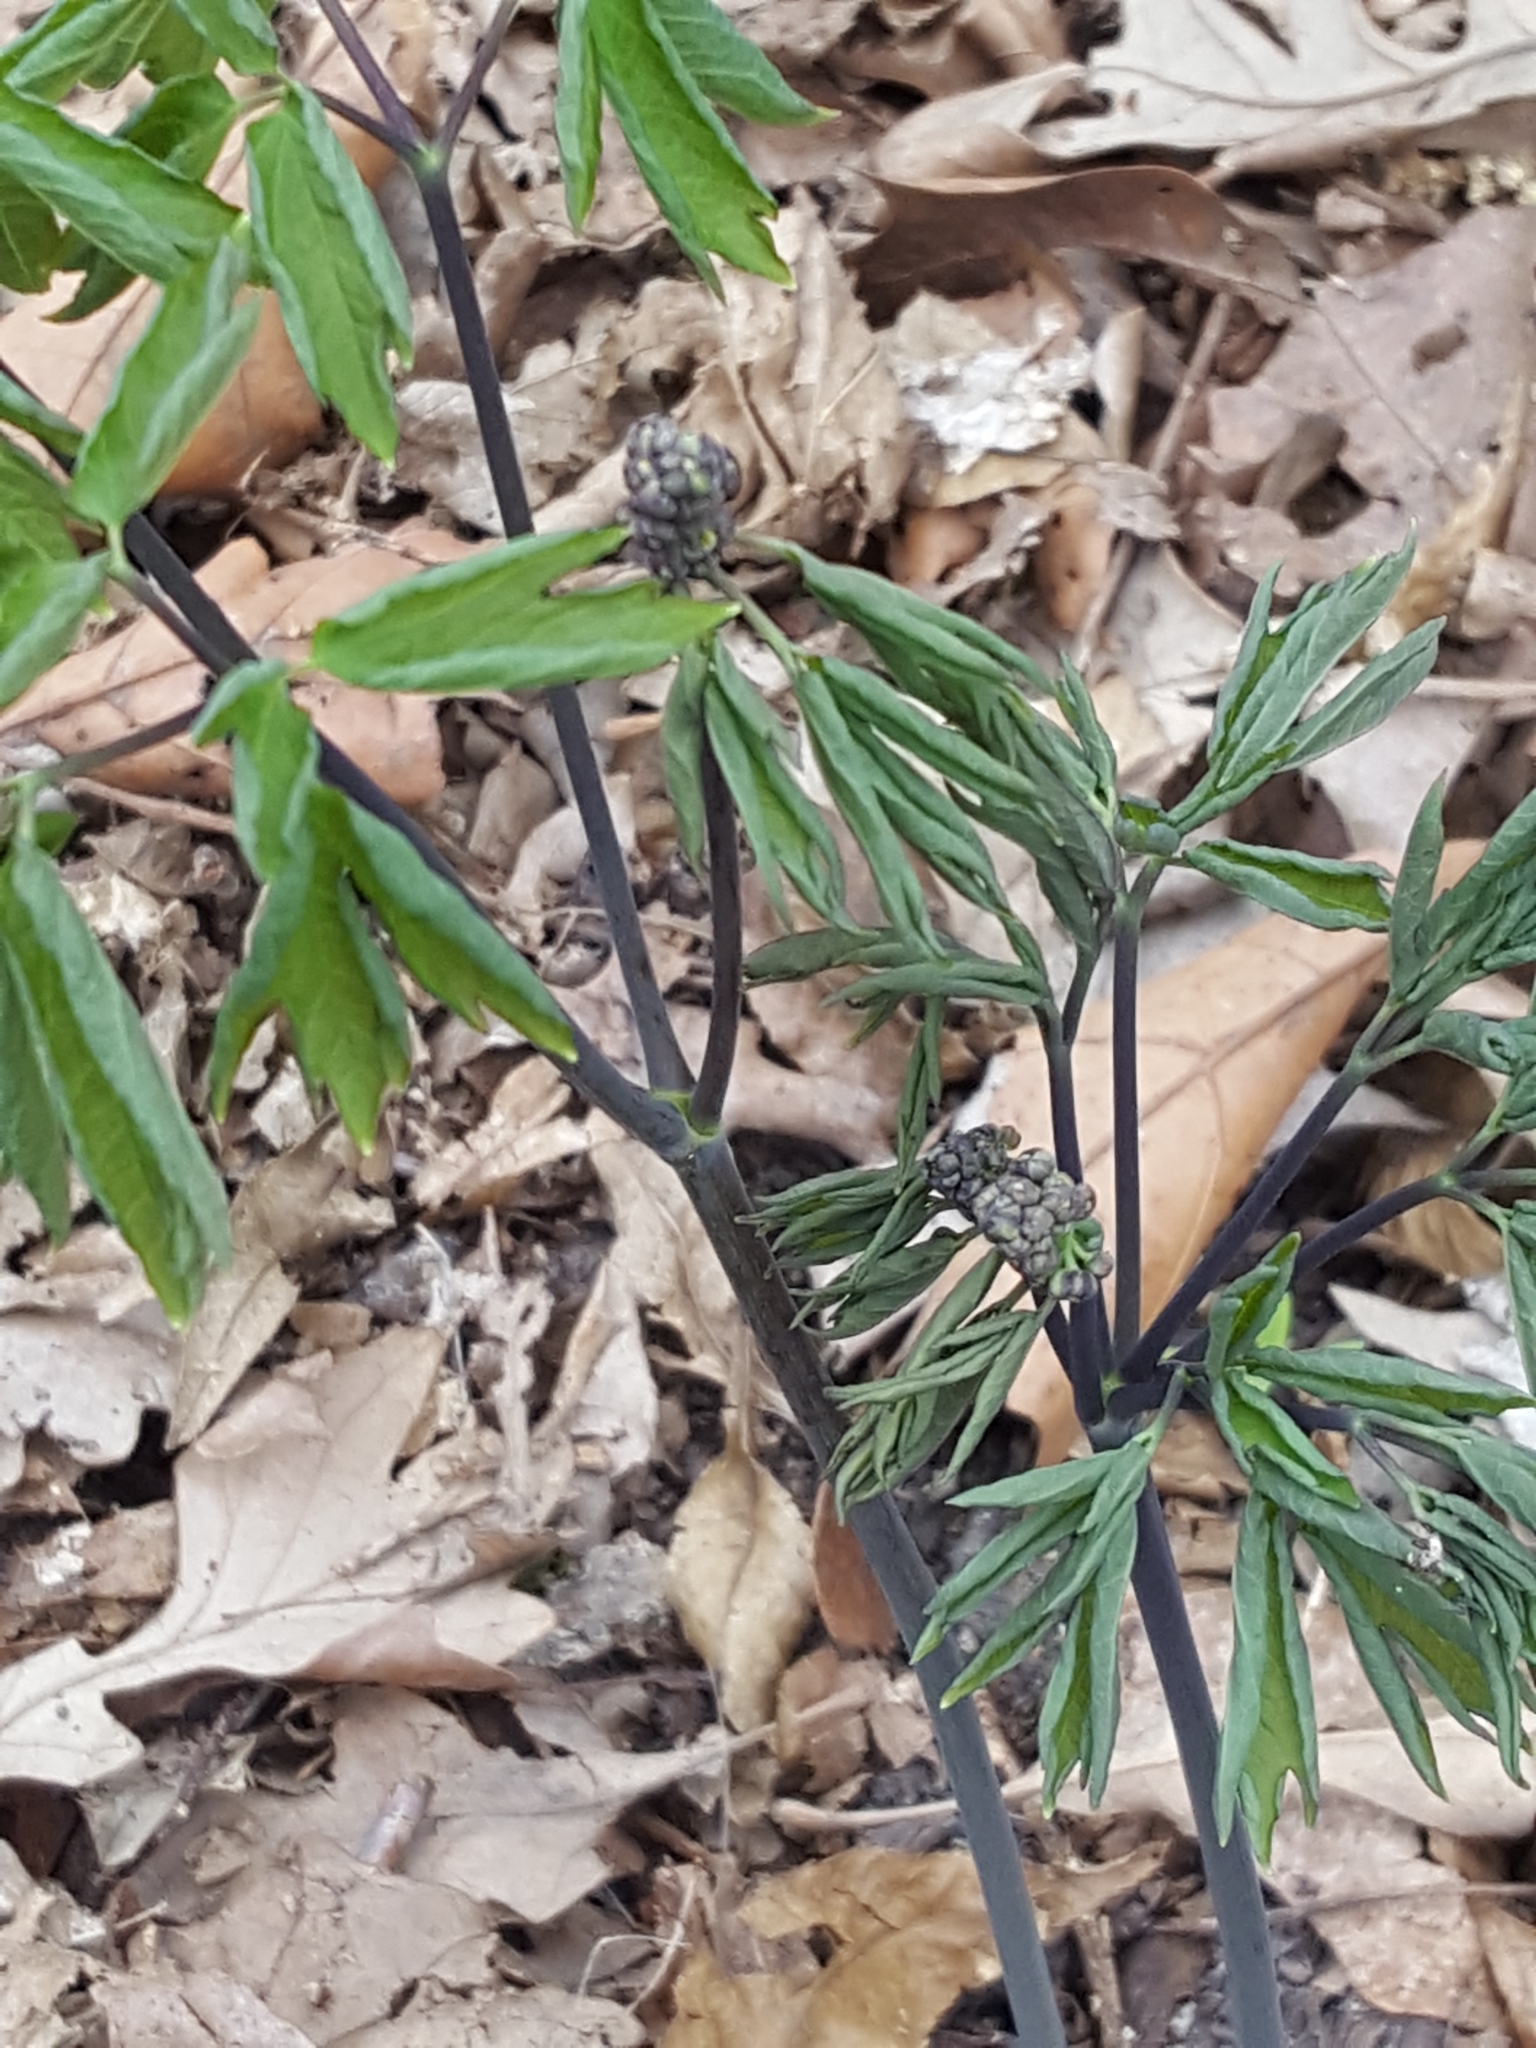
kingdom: Plantae
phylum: Tracheophyta
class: Magnoliopsida
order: Ranunculales
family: Berberidaceae
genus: Caulophyllum
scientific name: Caulophyllum thalictroides
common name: Blue cohosh
